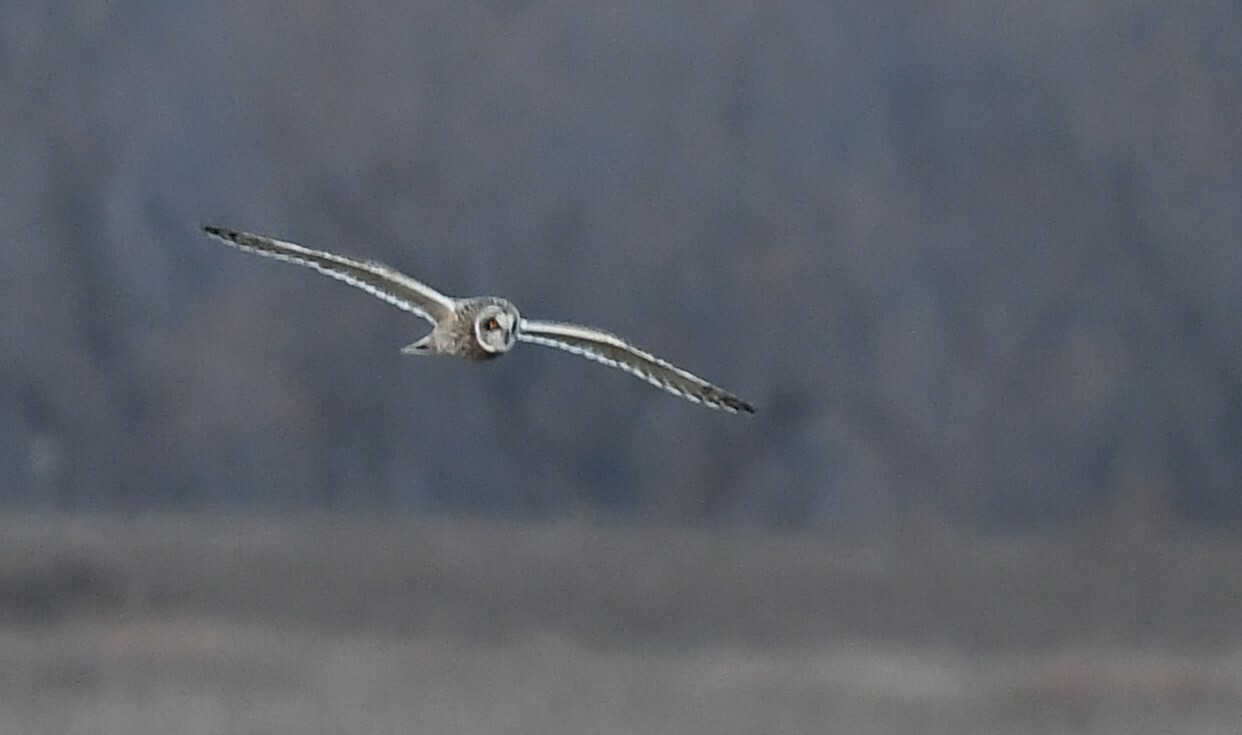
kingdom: Animalia
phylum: Chordata
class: Aves
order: Strigiformes
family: Strigidae
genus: Asio
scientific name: Asio flammeus
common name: Short-eared owl
